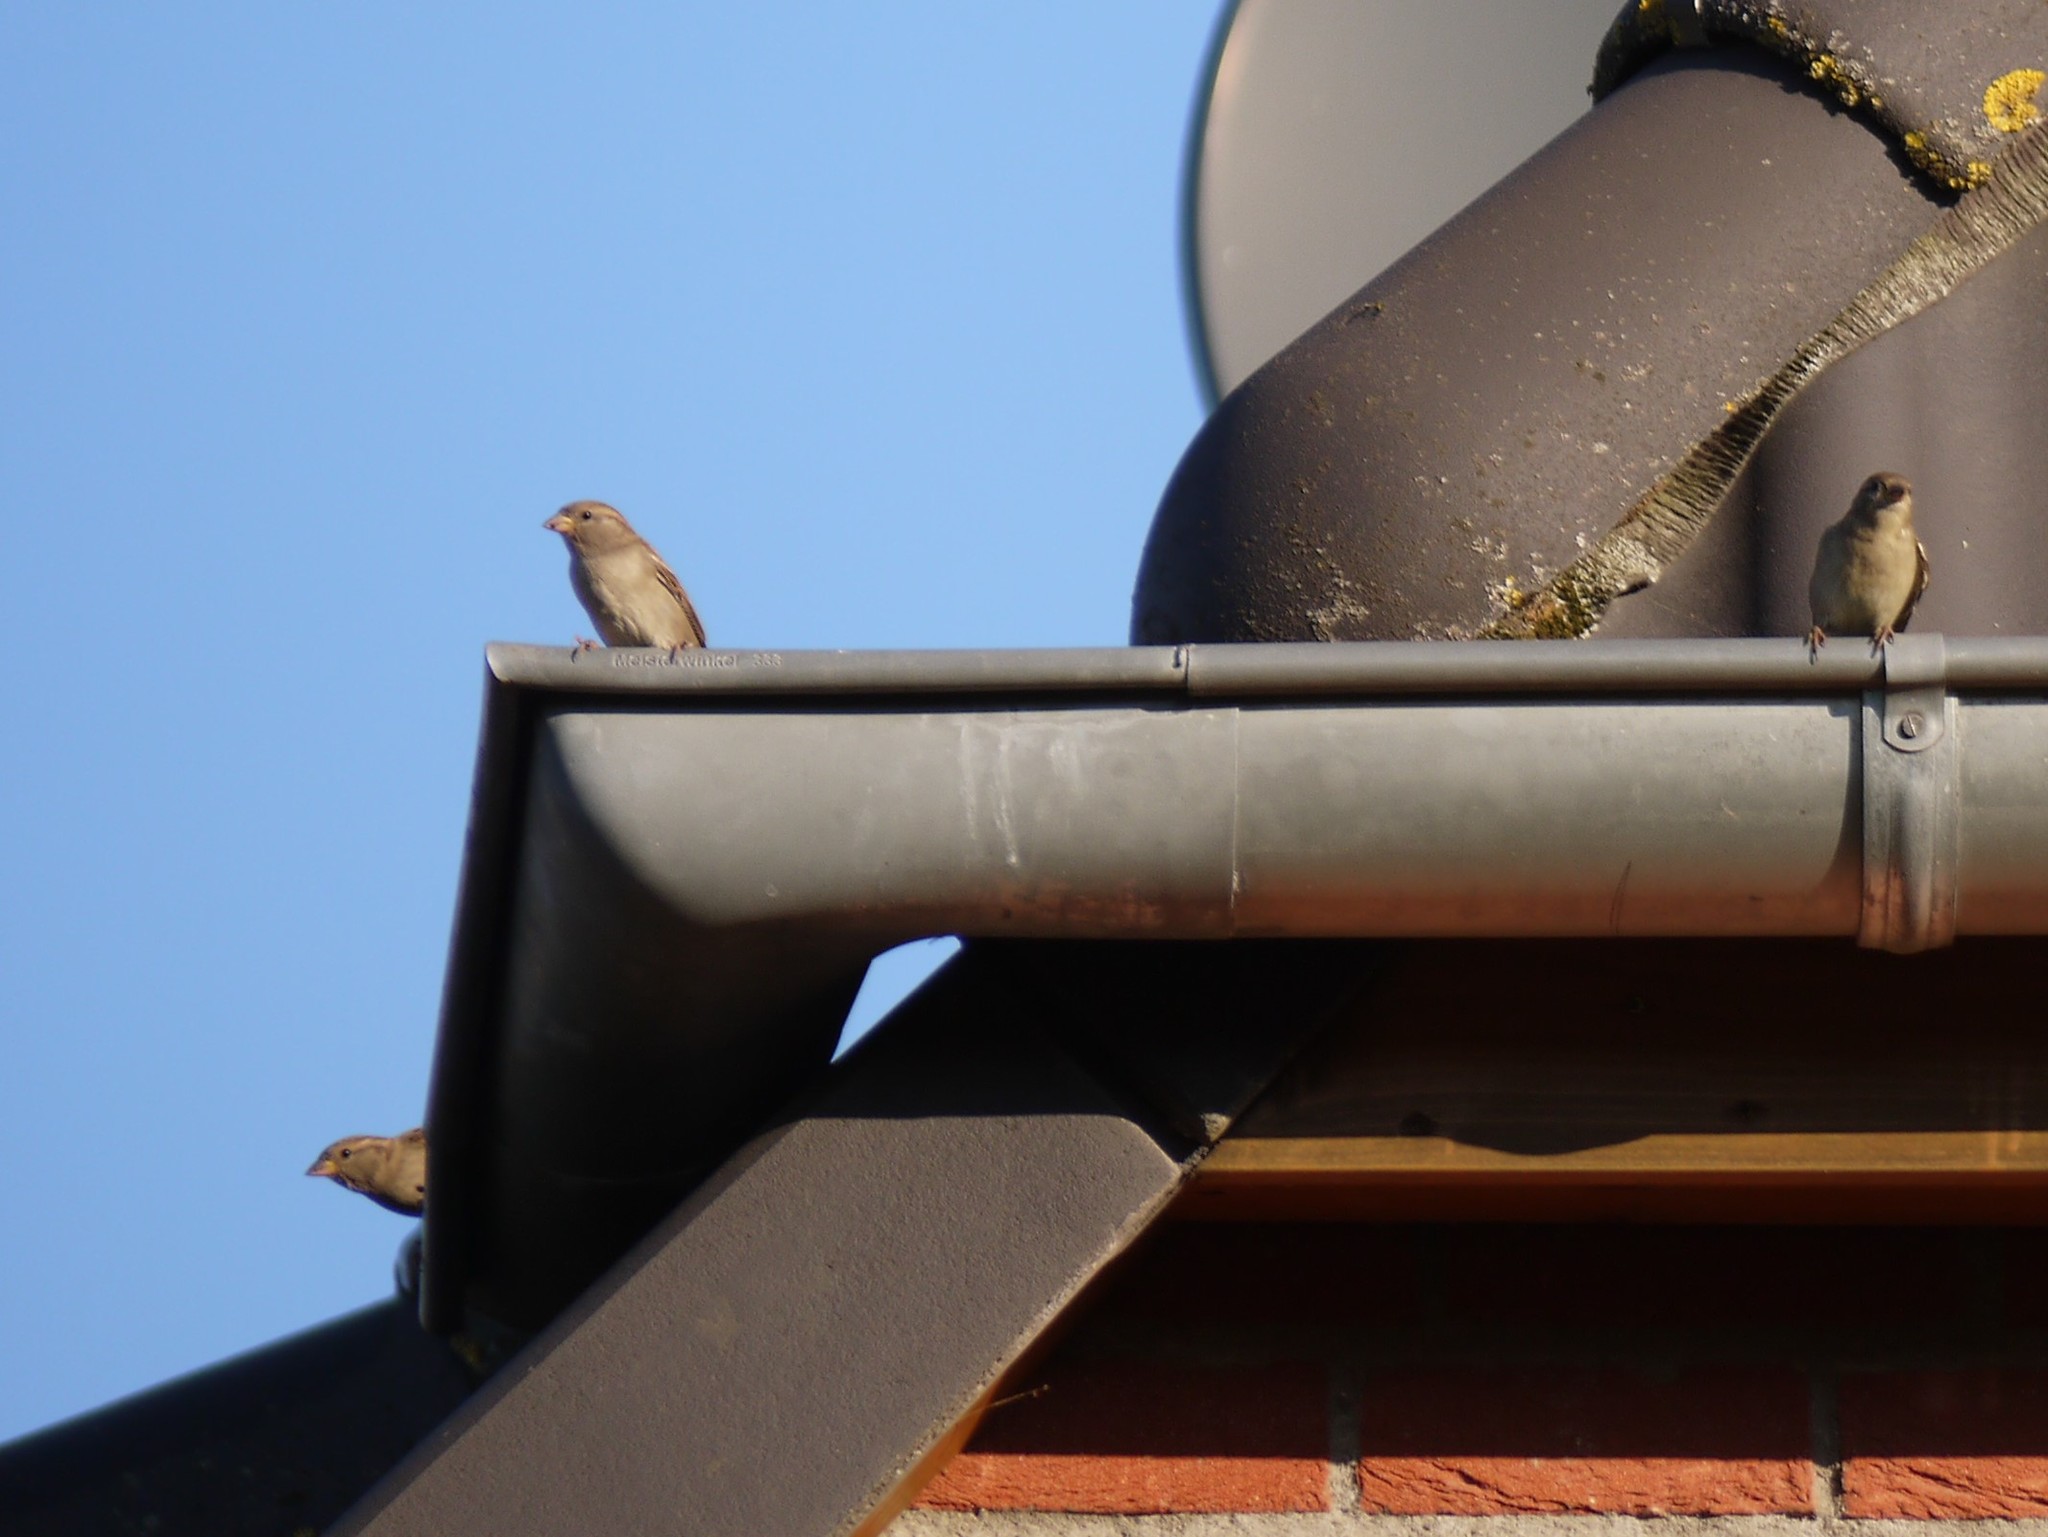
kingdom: Animalia
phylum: Chordata
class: Aves
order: Passeriformes
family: Passeridae
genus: Passer
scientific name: Passer domesticus
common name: House sparrow
